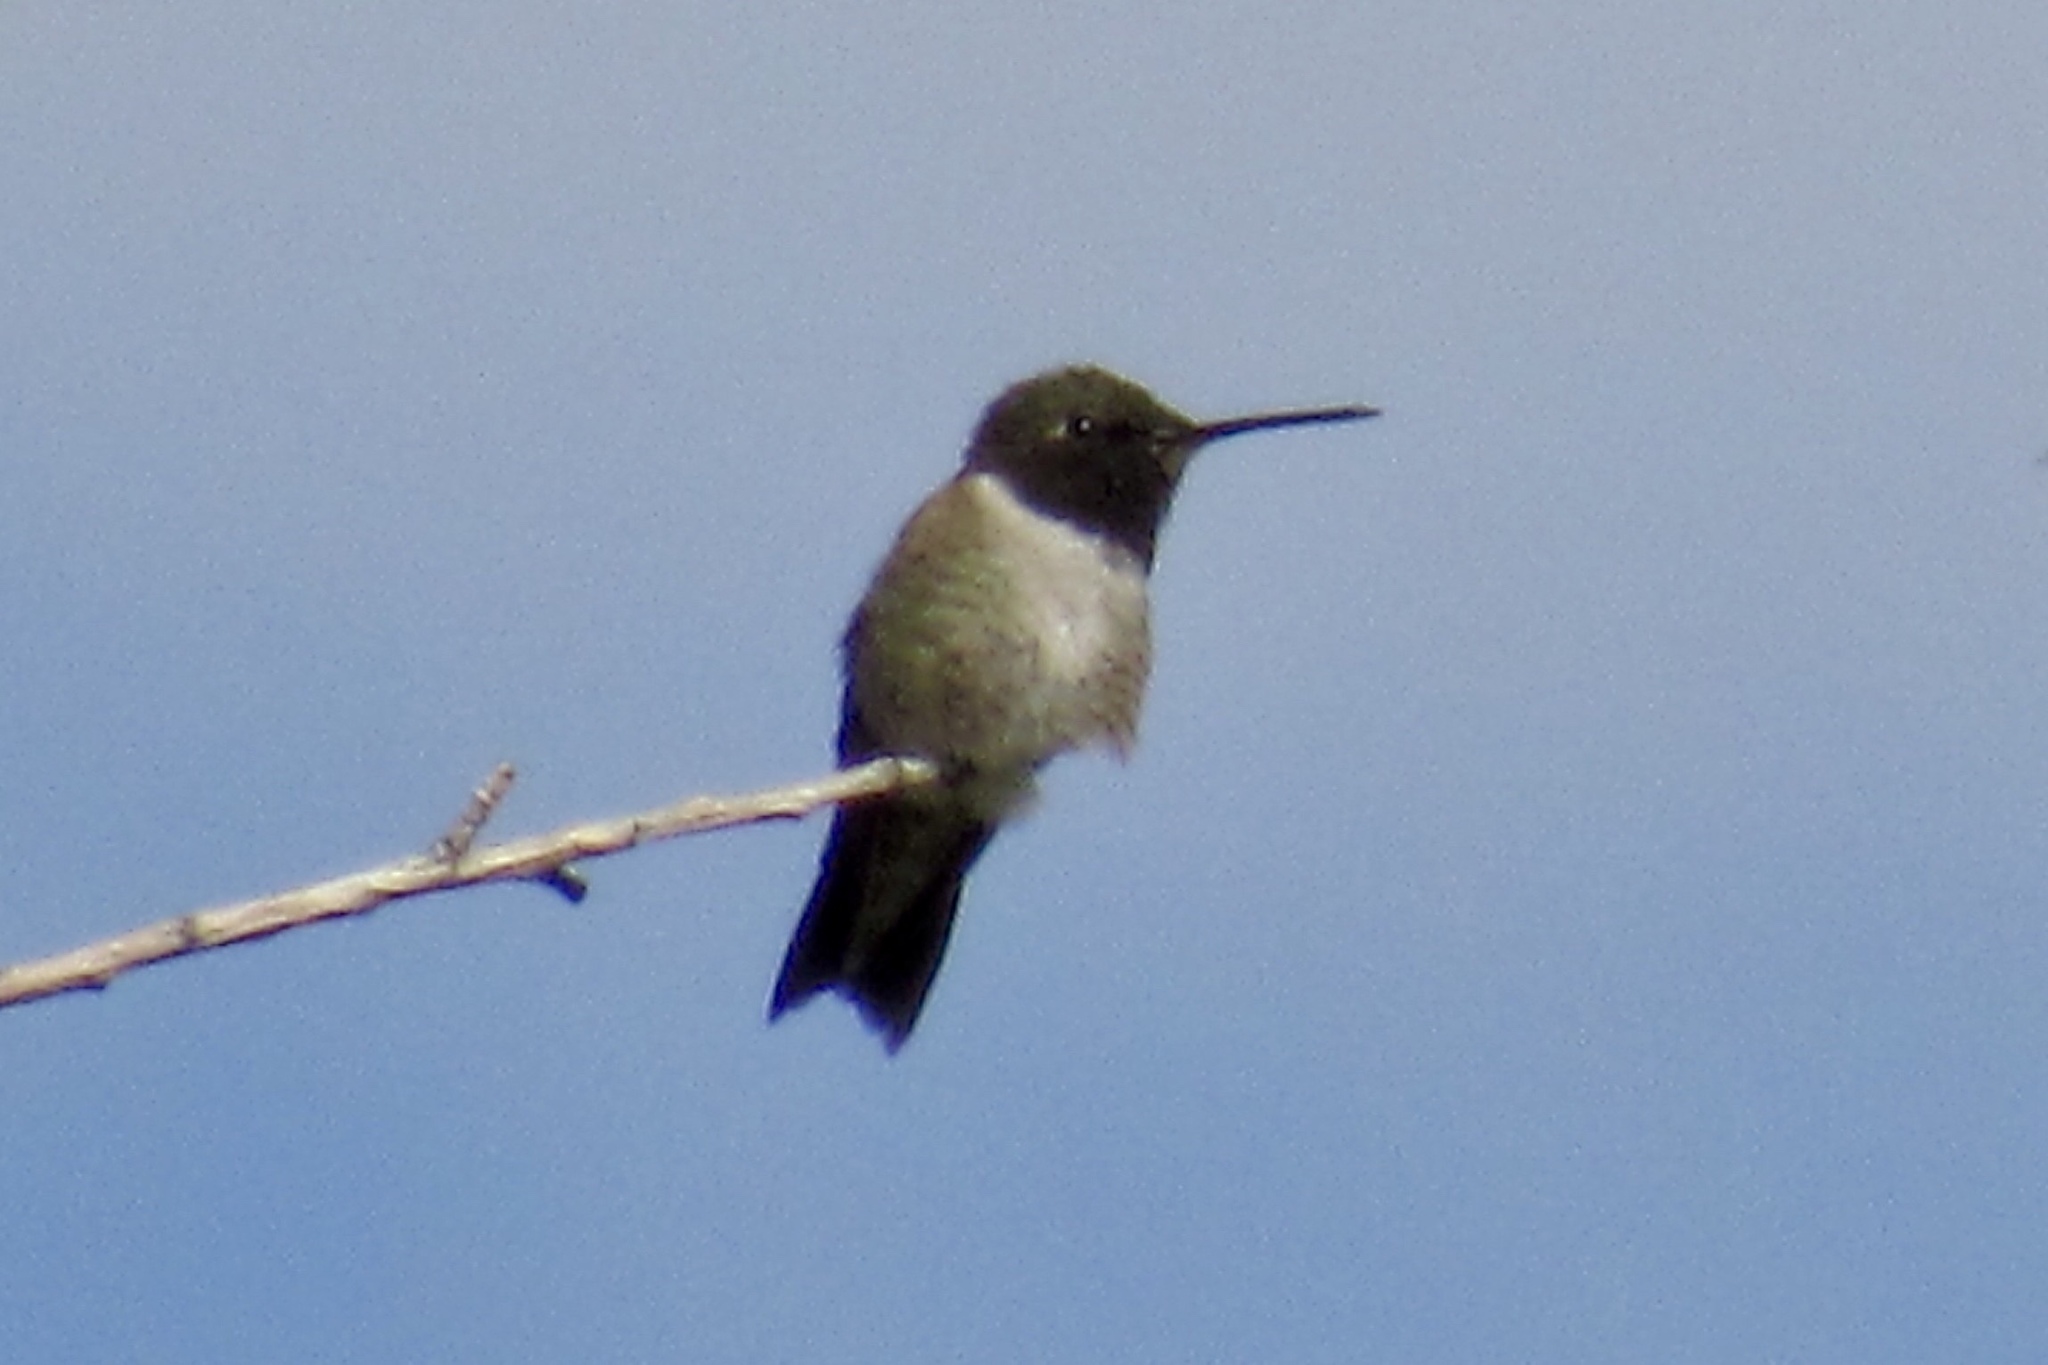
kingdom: Animalia
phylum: Chordata
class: Aves
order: Apodiformes
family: Trochilidae
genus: Archilochus
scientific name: Archilochus alexandri
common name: Black-chinned hummingbird
